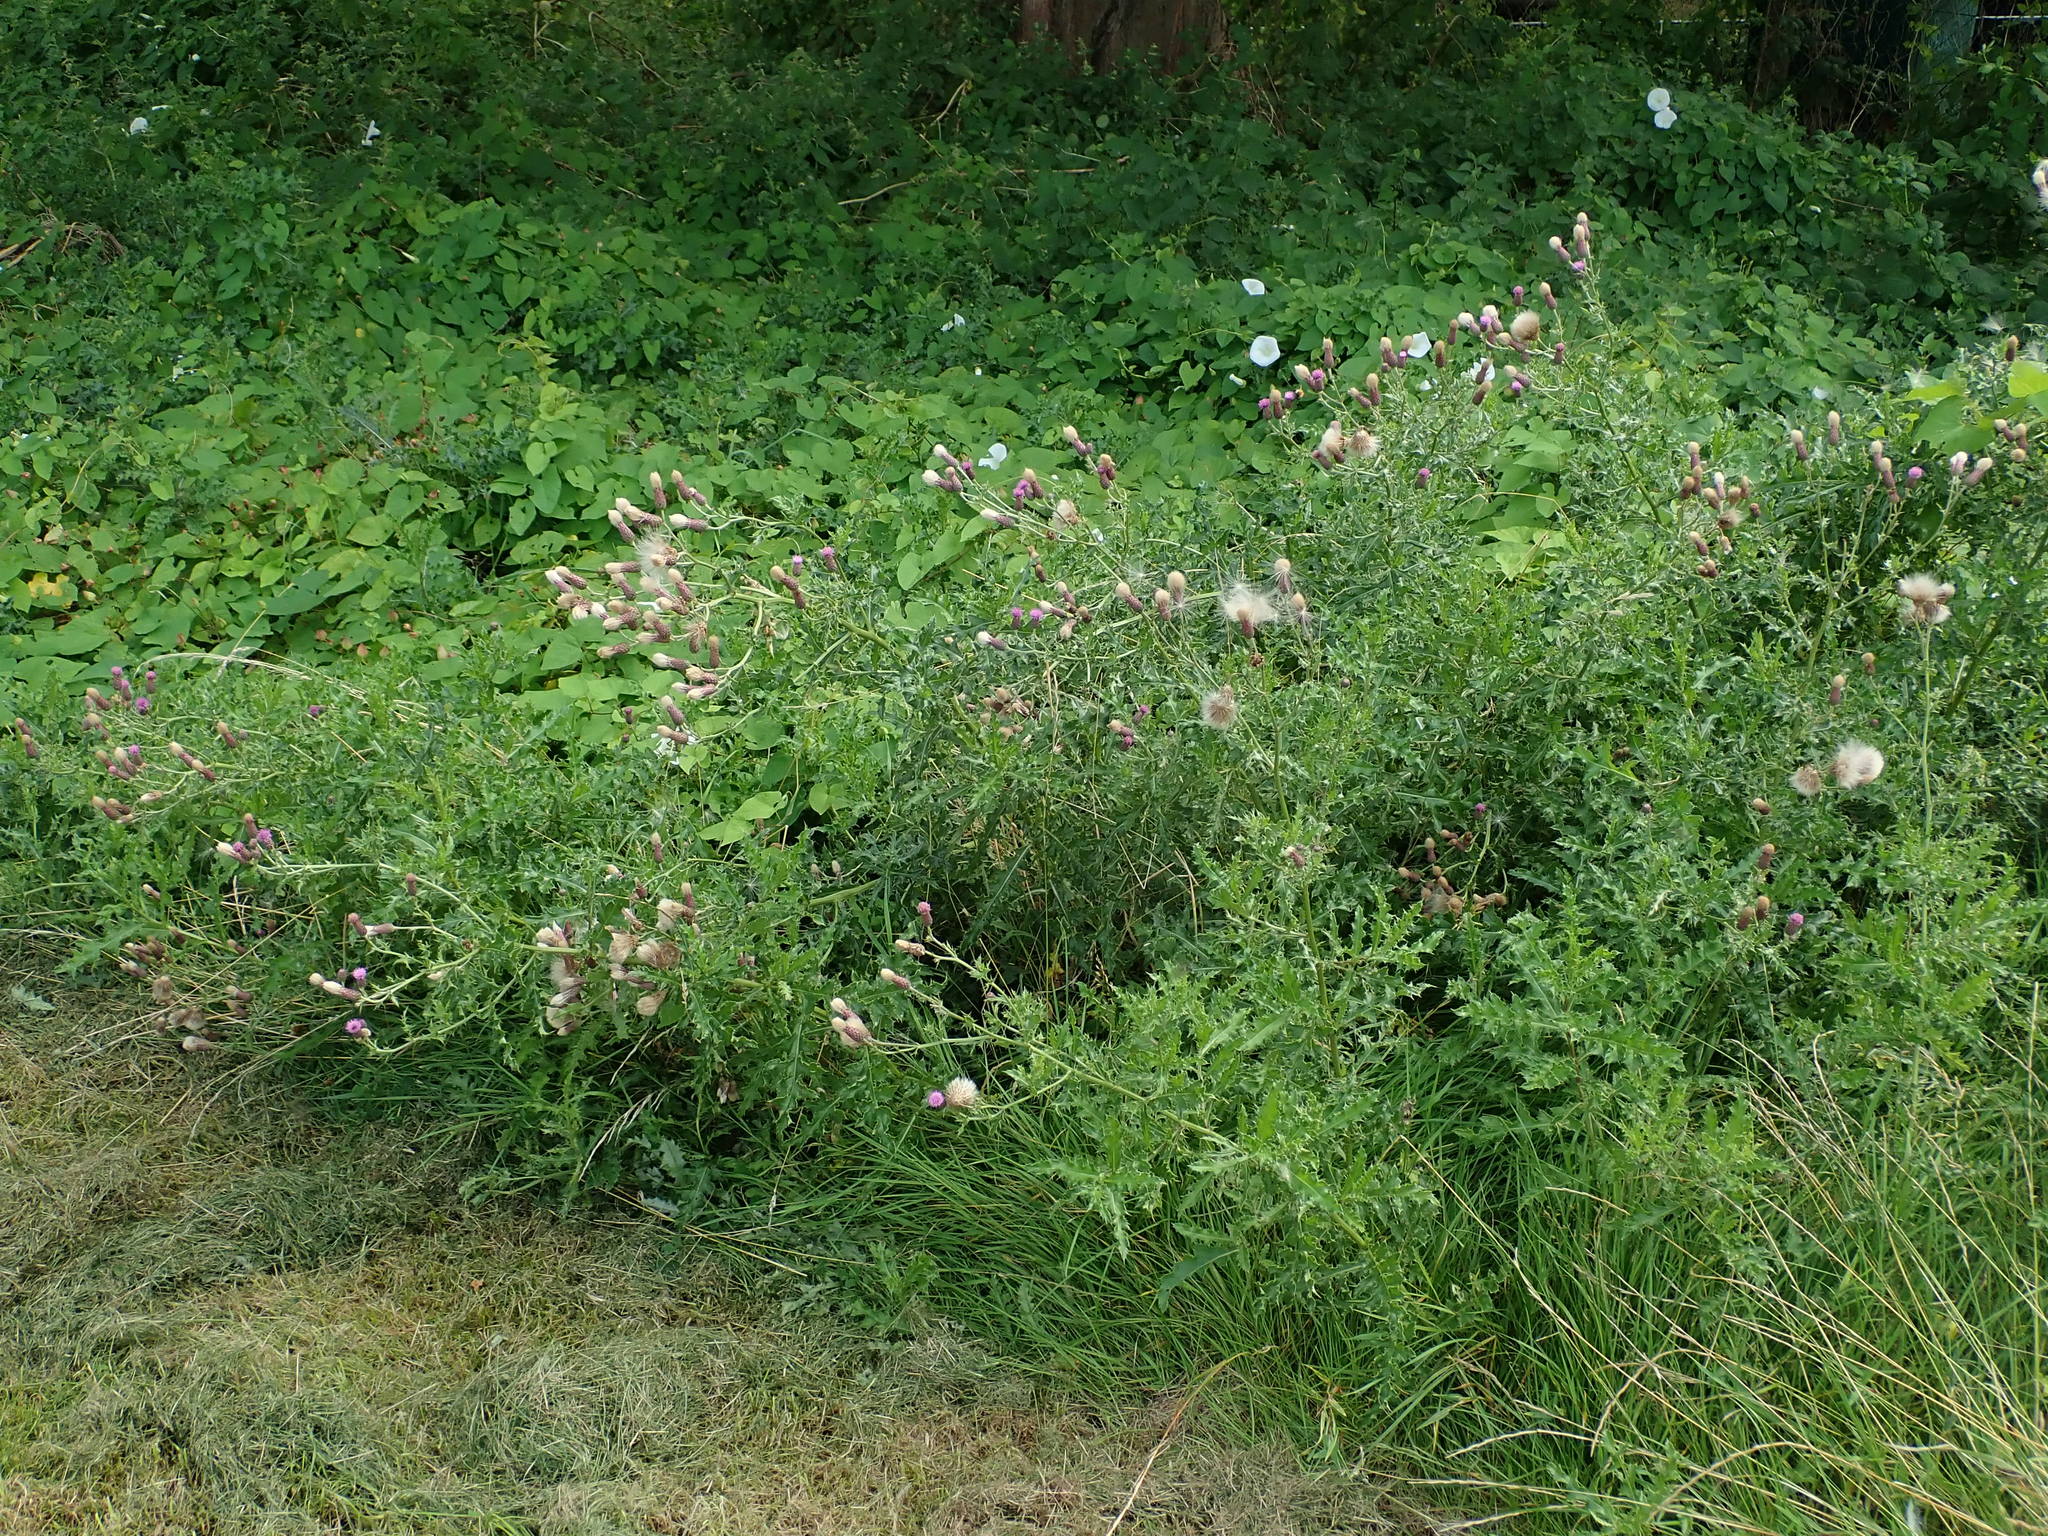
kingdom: Plantae
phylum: Tracheophyta
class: Magnoliopsida
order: Asterales
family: Asteraceae
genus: Cirsium
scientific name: Cirsium arvense
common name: Creeping thistle
